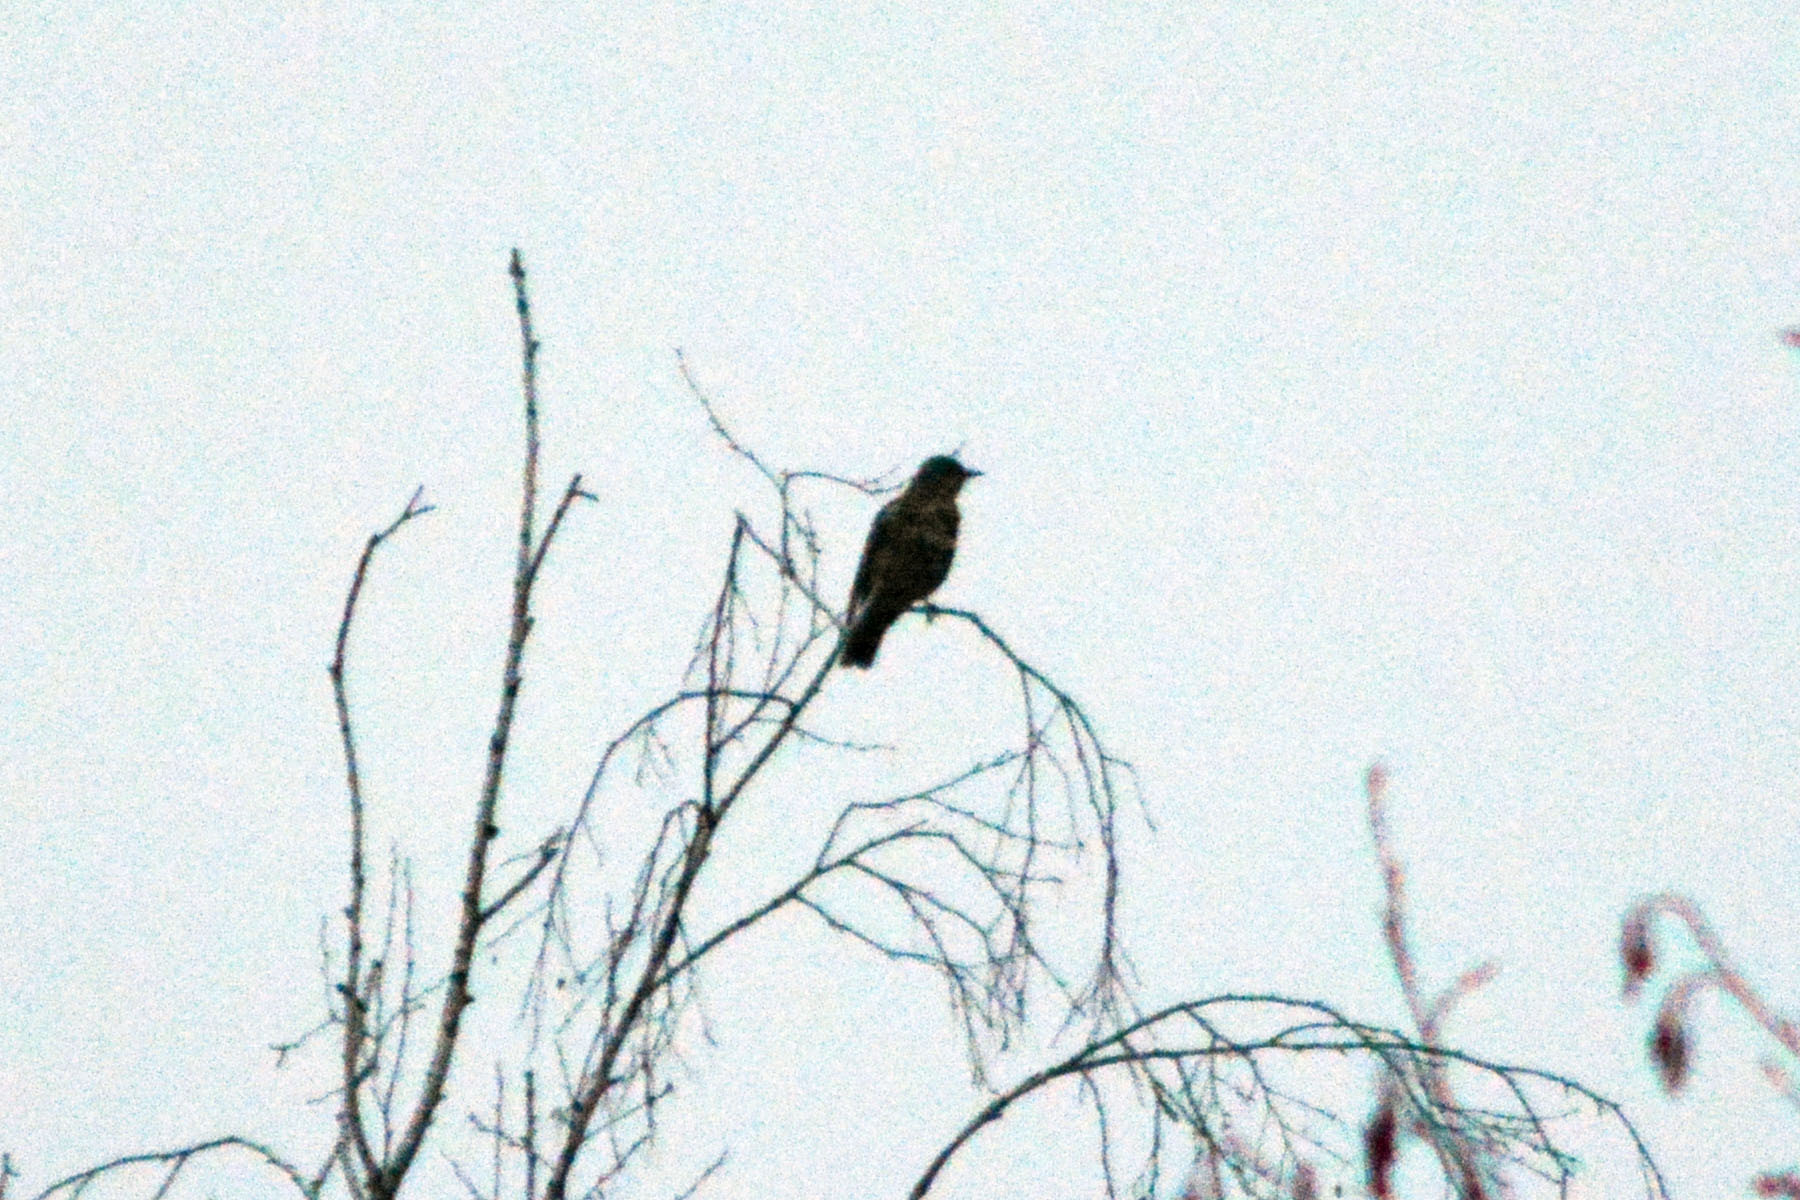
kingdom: Animalia
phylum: Chordata
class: Aves
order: Passeriformes
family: Turdidae
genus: Turdus
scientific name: Turdus viscivorus
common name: Mistle thrush
